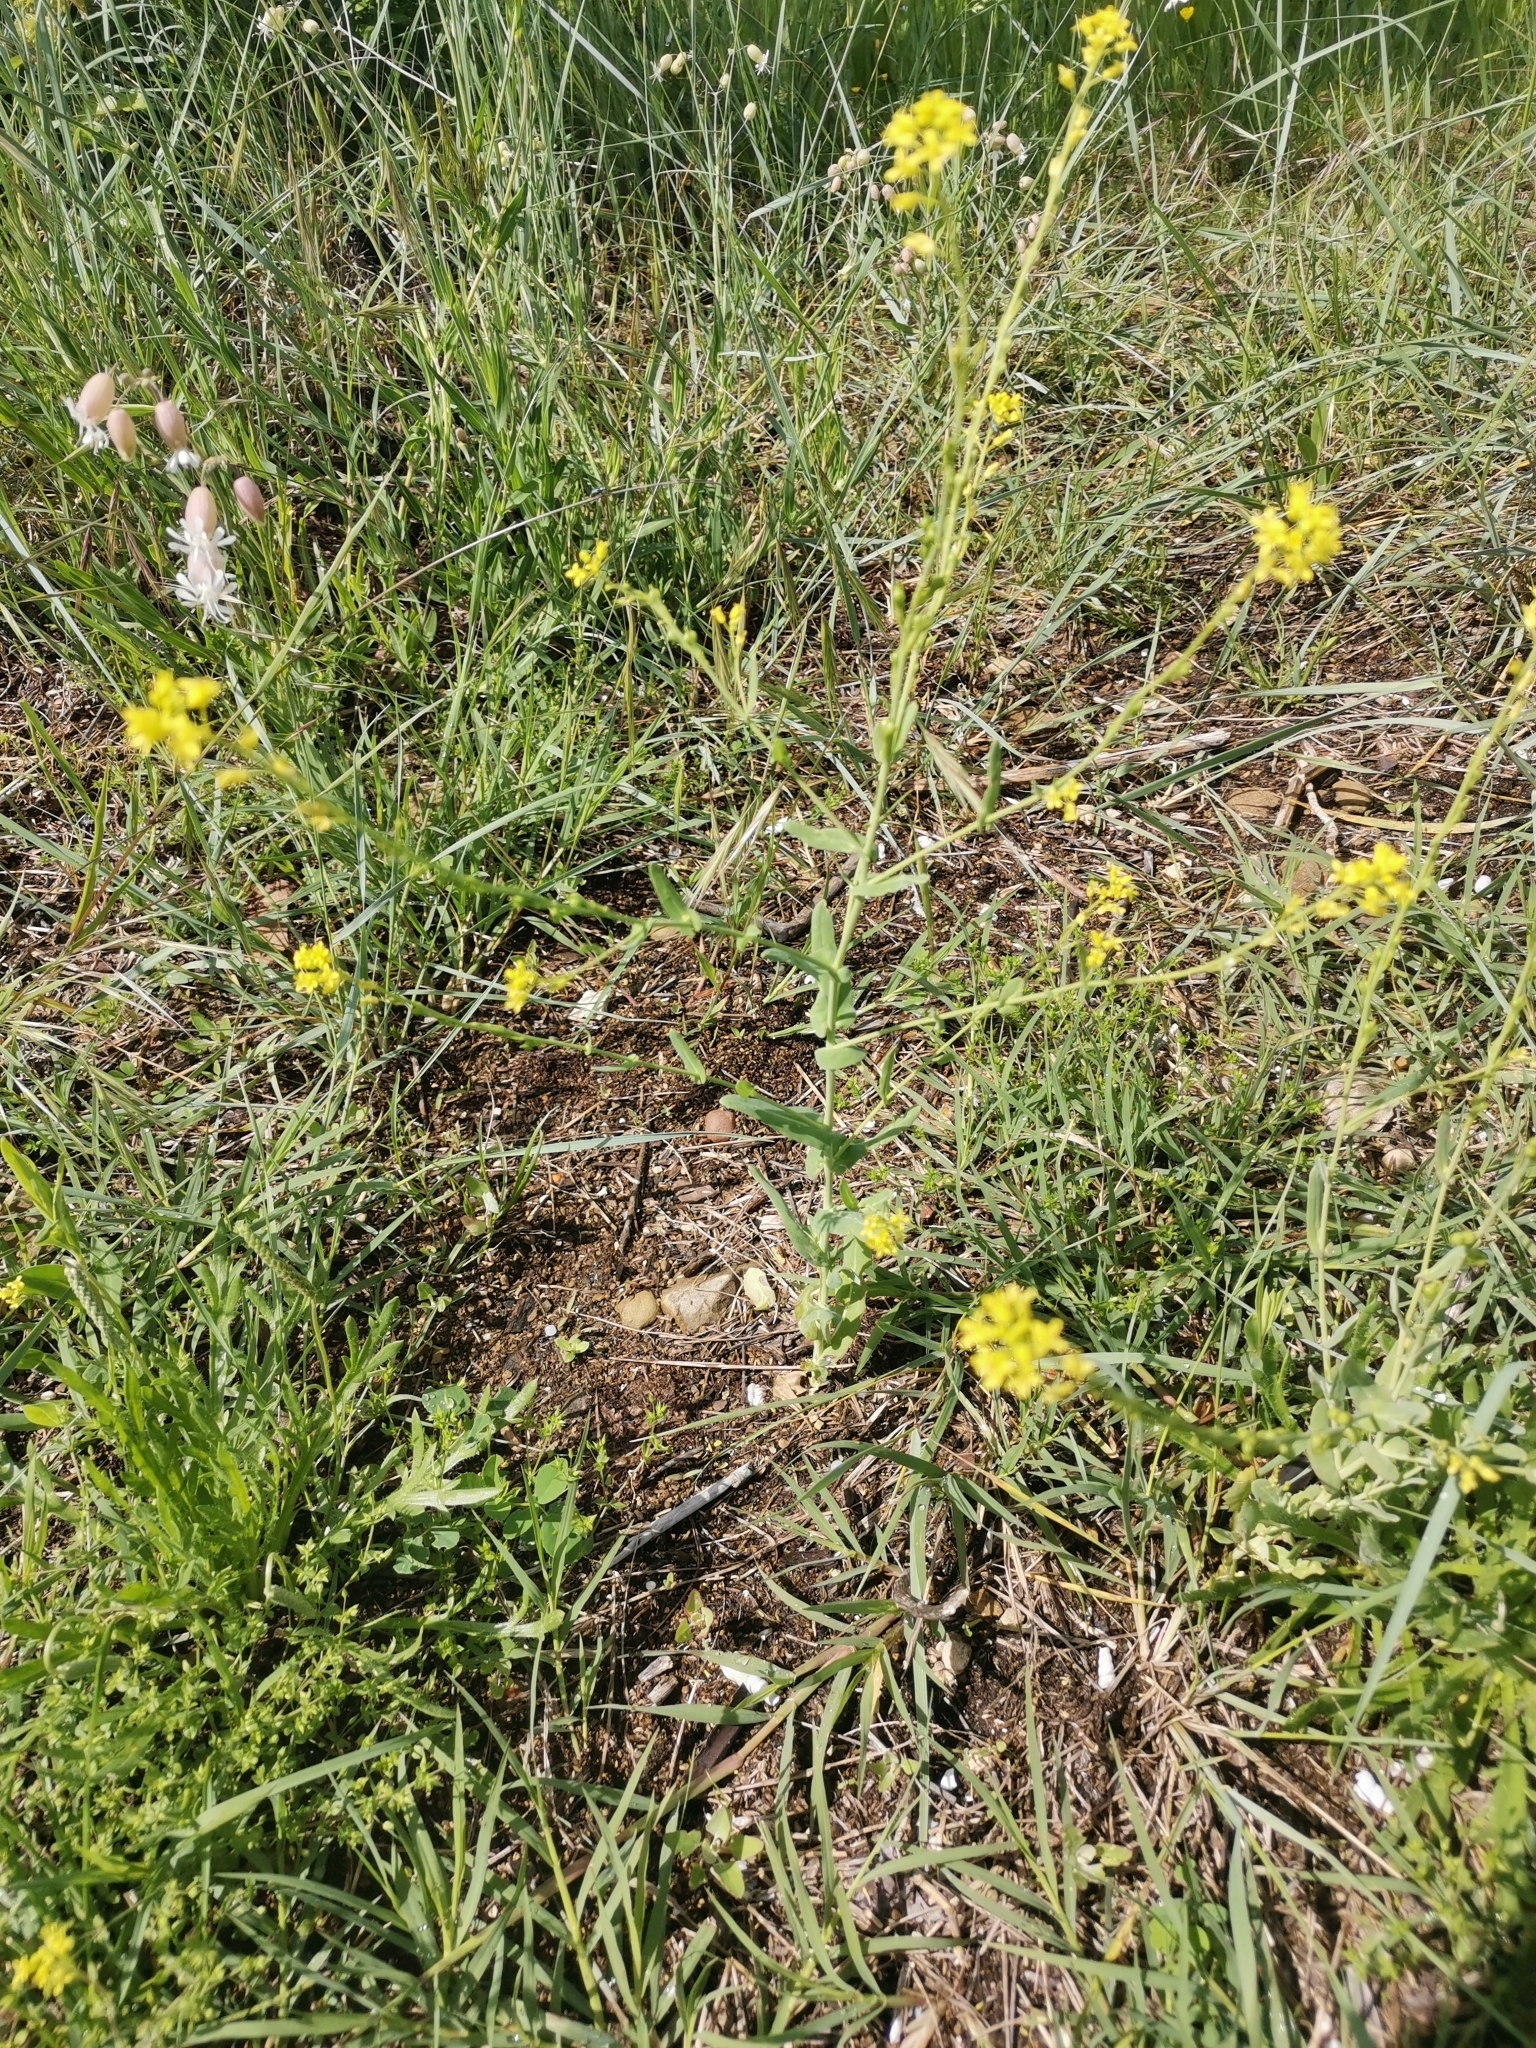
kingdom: Plantae
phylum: Tracheophyta
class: Magnoliopsida
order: Brassicales
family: Brassicaceae
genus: Myagrum
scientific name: Myagrum perfoliatum
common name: Mitre cress
